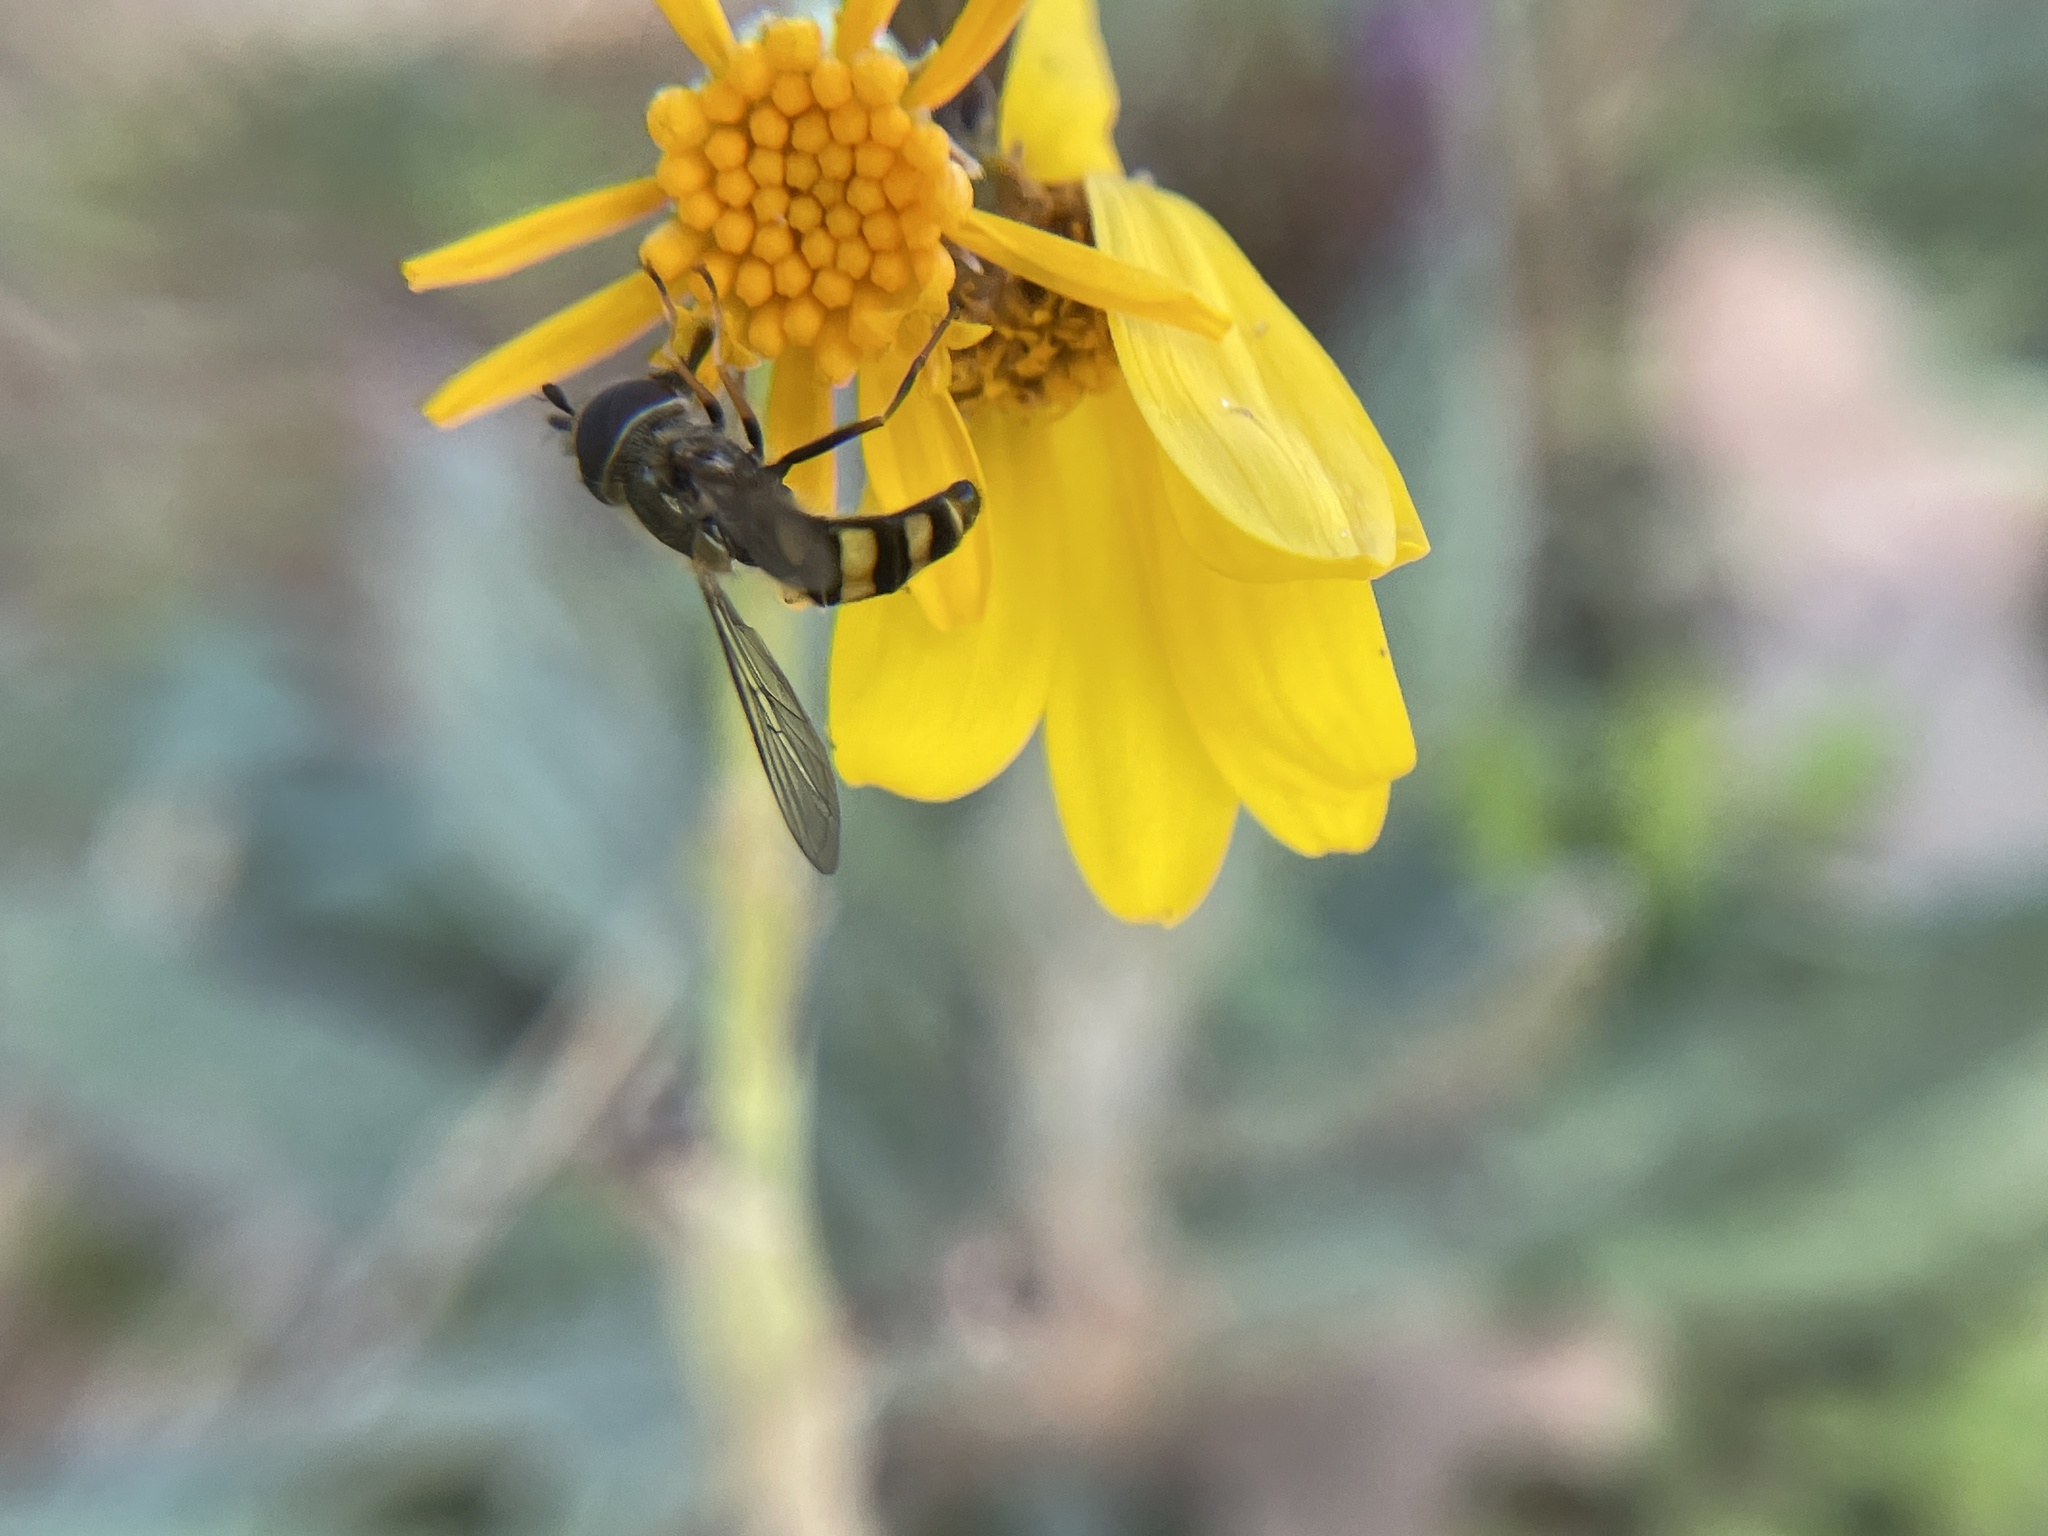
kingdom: Animalia
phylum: Arthropoda
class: Insecta
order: Diptera
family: Syrphidae
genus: Eupeodes
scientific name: Eupeodes
